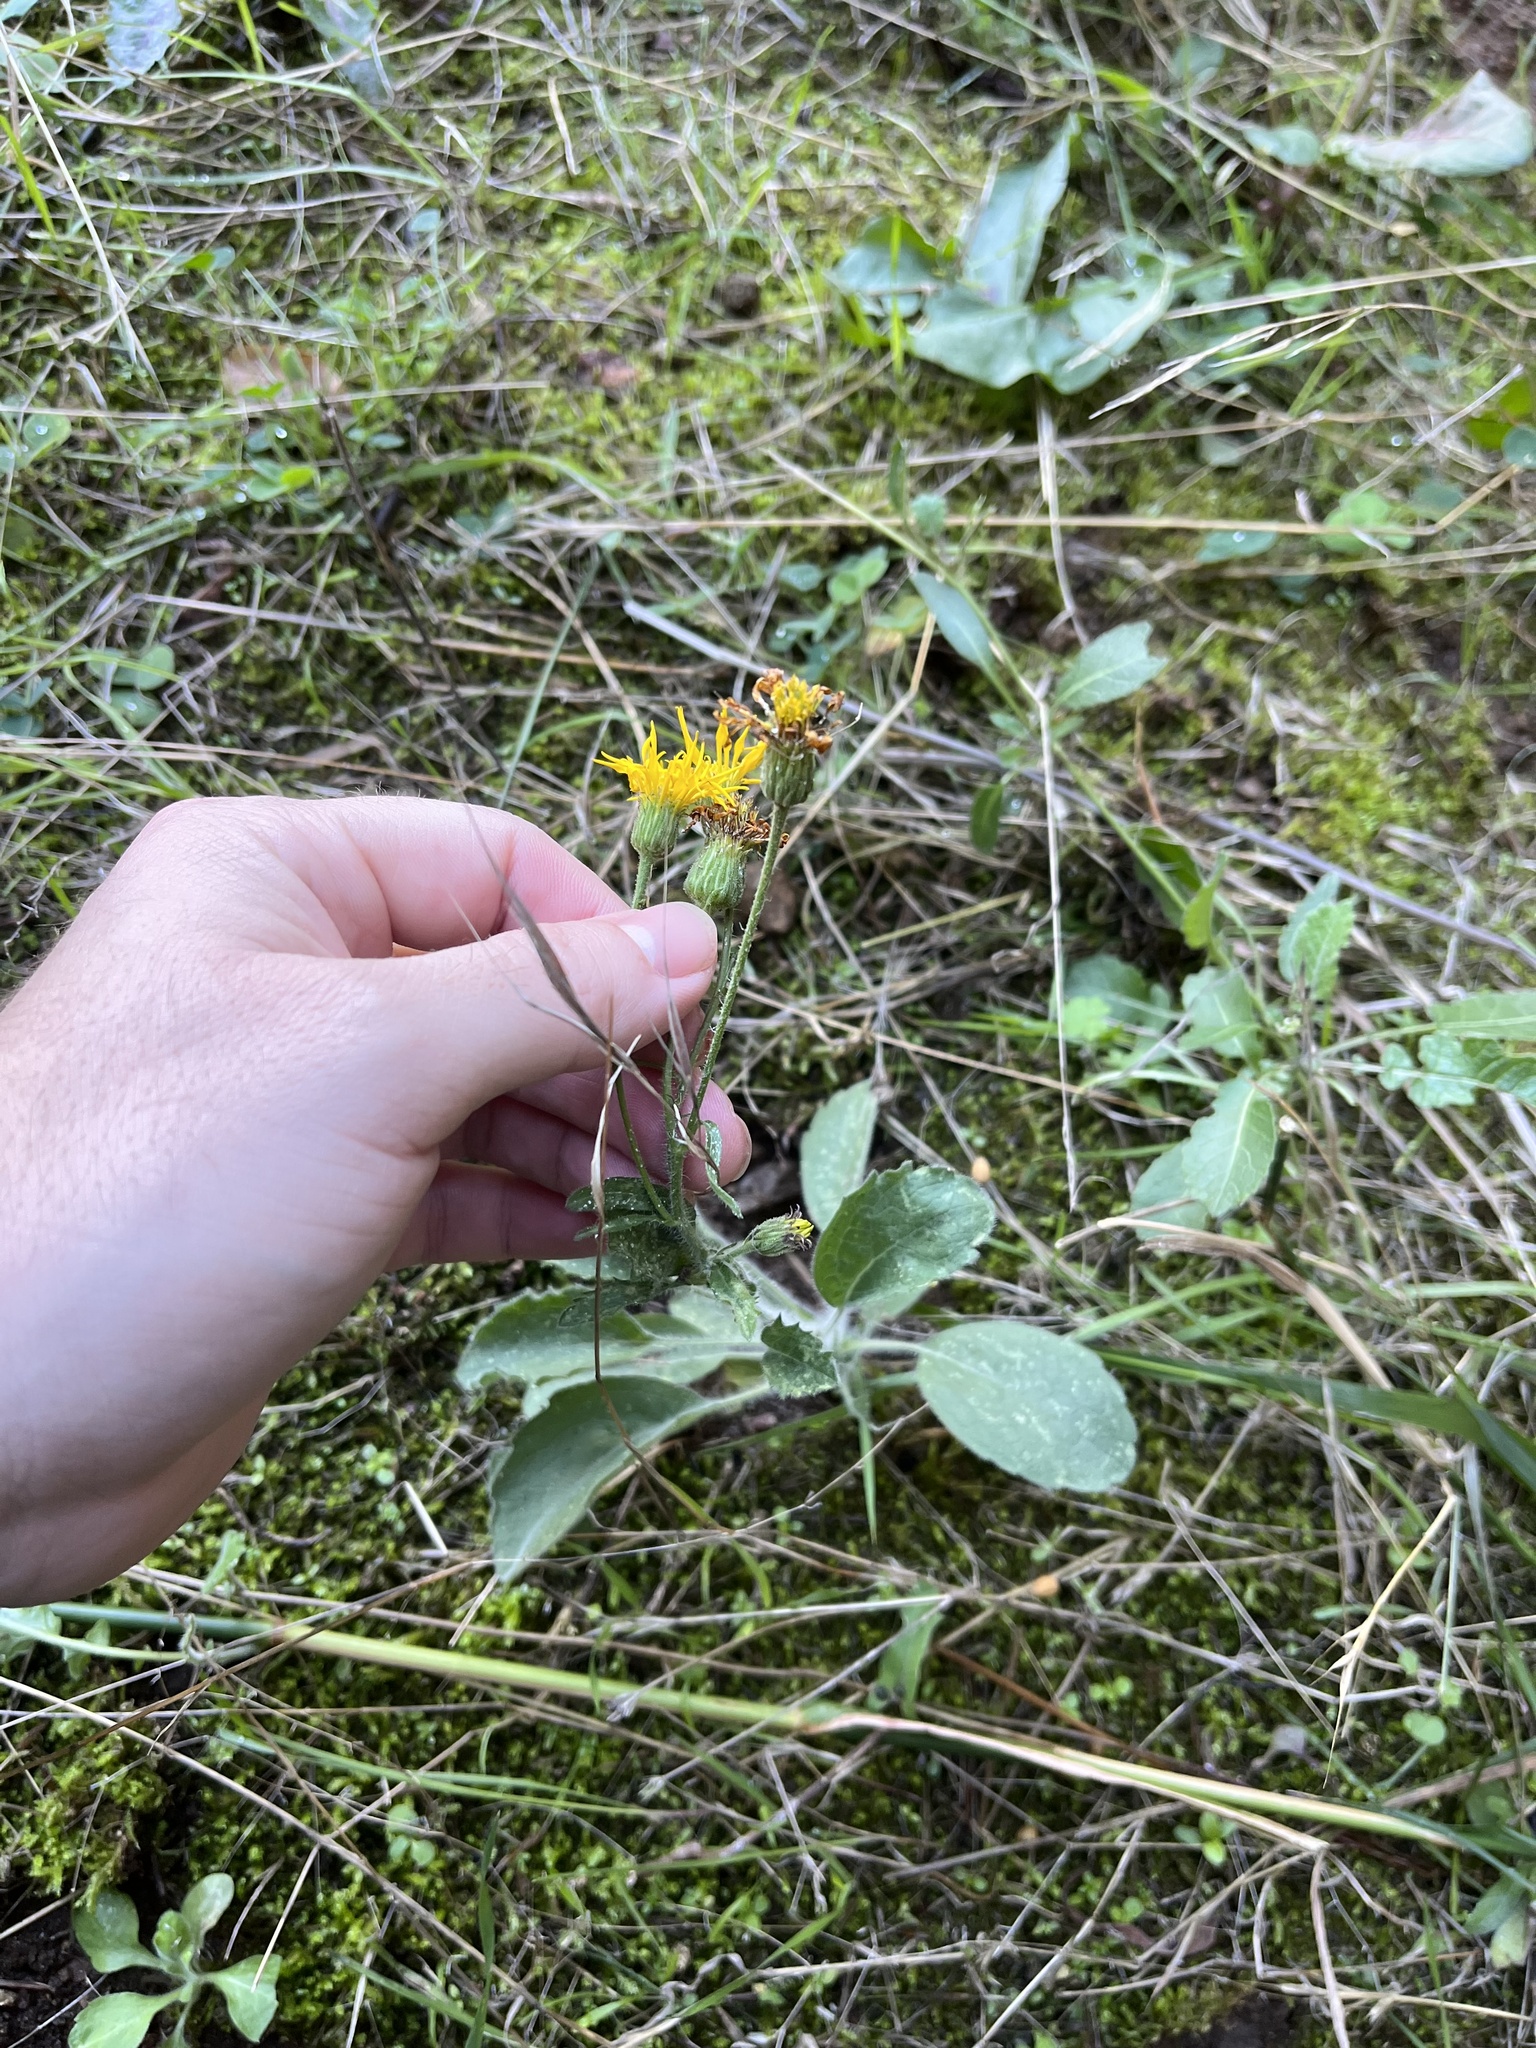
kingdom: Plantae
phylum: Tracheophyta
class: Magnoliopsida
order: Asterales
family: Asteraceae
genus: Heterotheca
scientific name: Heterotheca grandiflora
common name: Telegraphweed
